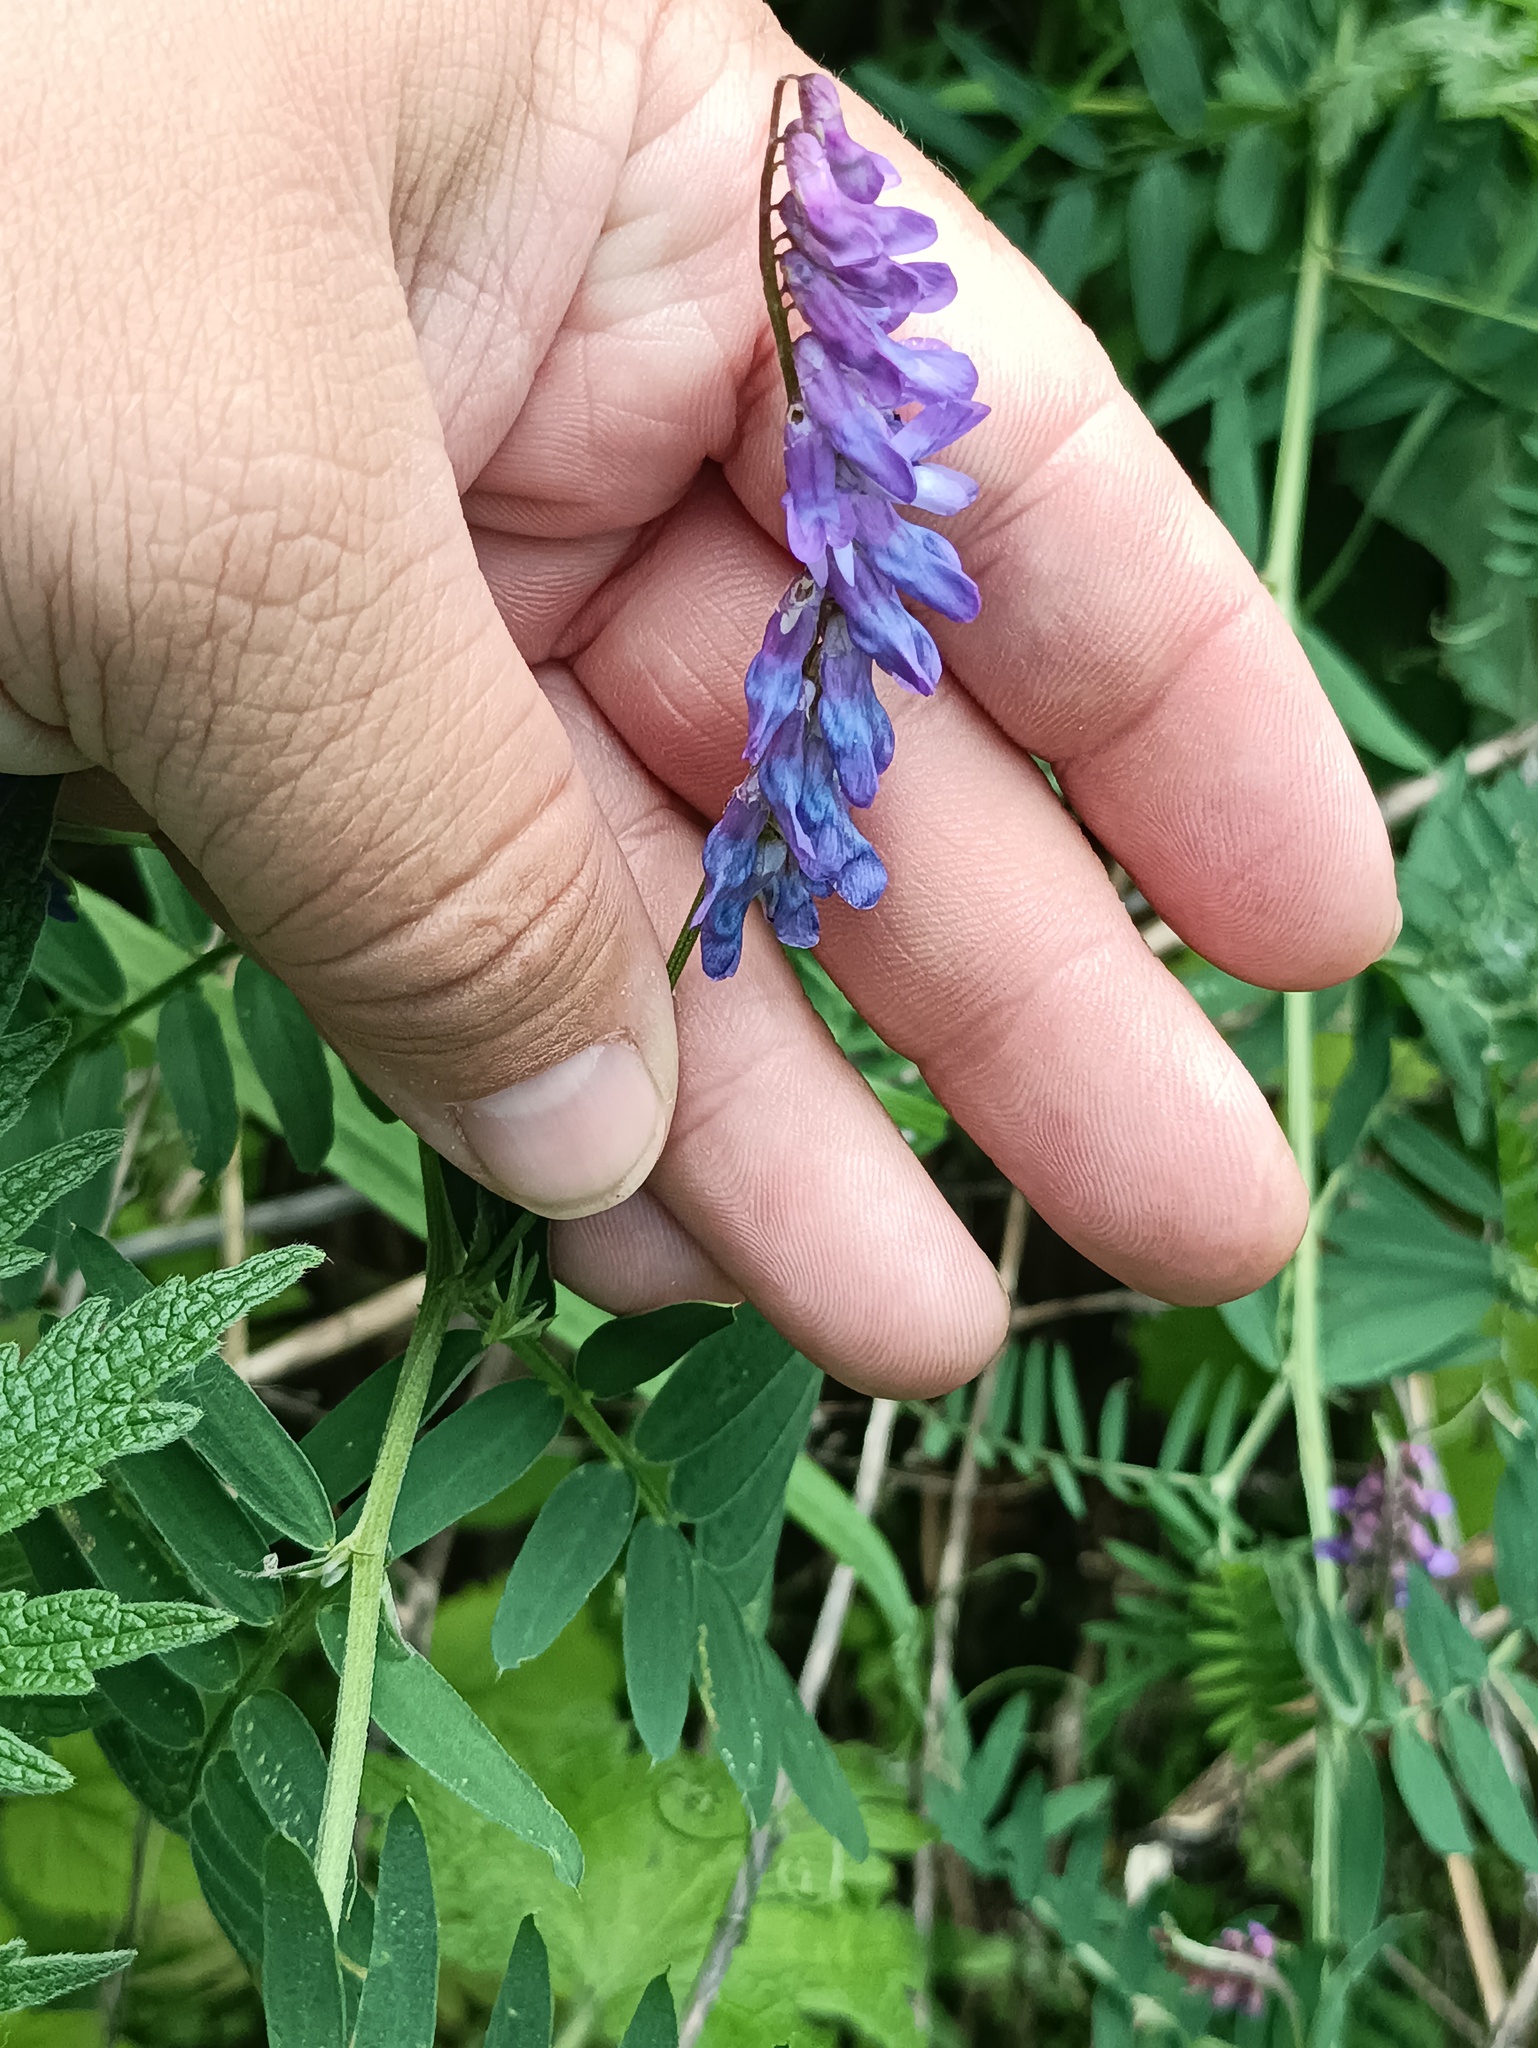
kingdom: Plantae
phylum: Tracheophyta
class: Magnoliopsida
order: Fabales
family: Fabaceae
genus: Vicia
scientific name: Vicia cracca
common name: Bird vetch
